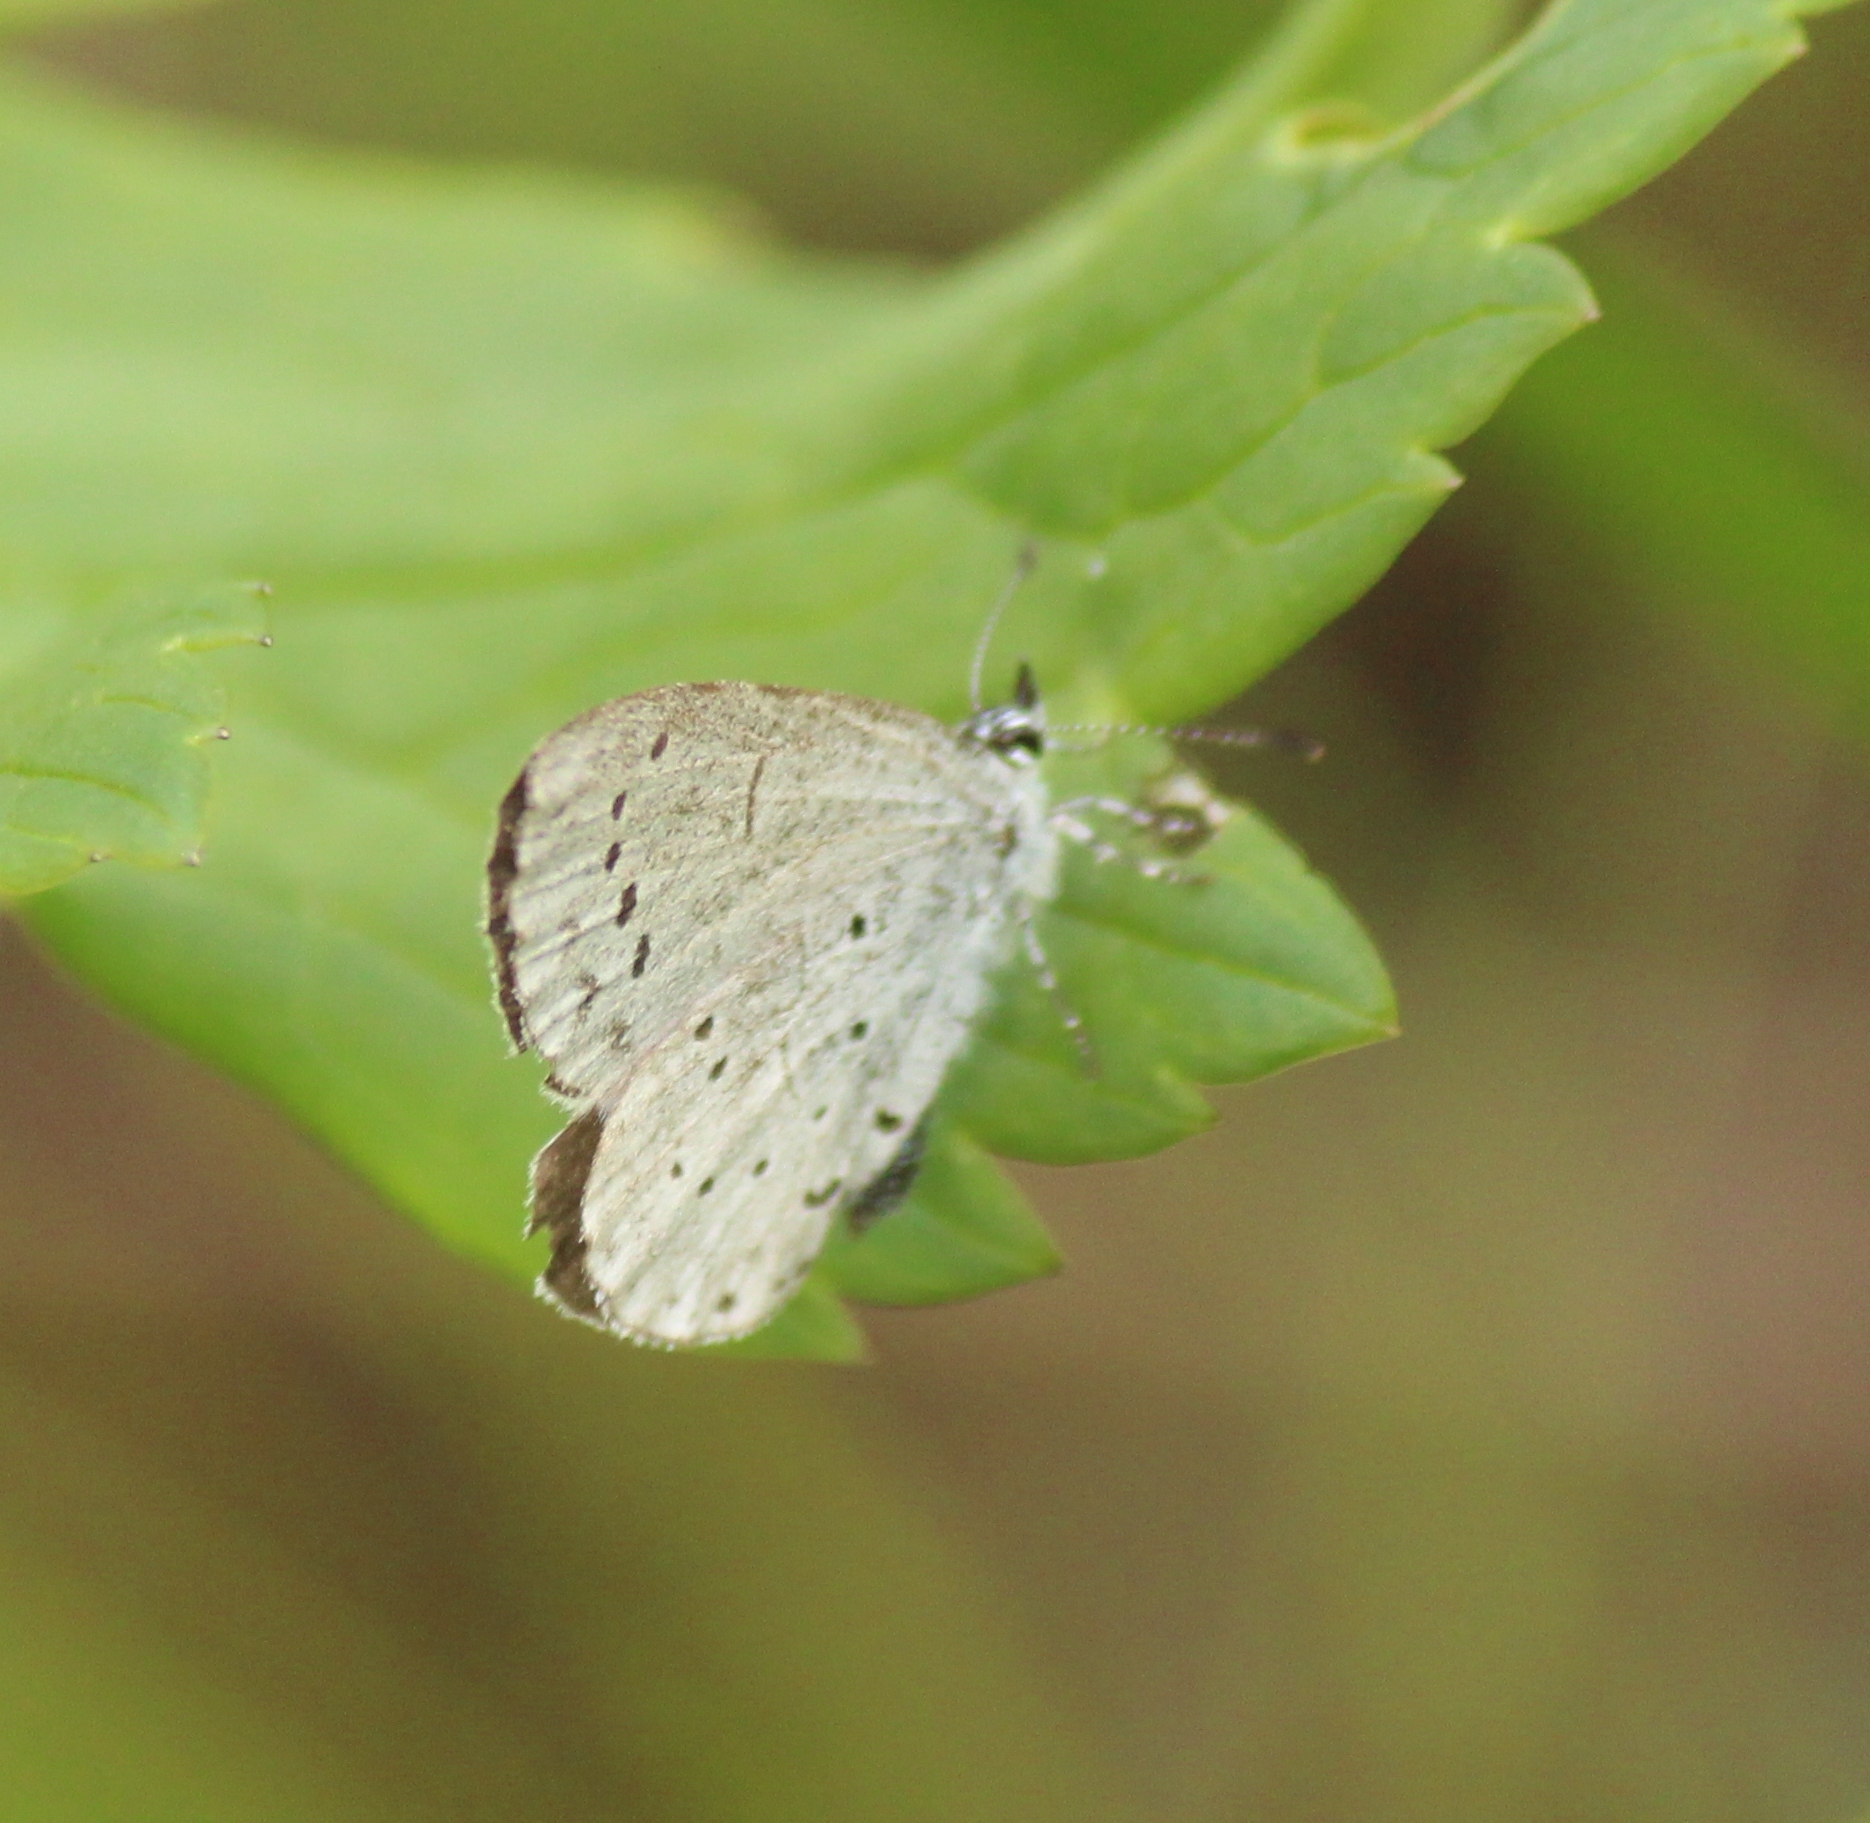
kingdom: Animalia
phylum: Arthropoda
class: Insecta
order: Lepidoptera
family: Lycaenidae
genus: Celastrina
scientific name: Celastrina argiolus
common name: Holly blue
